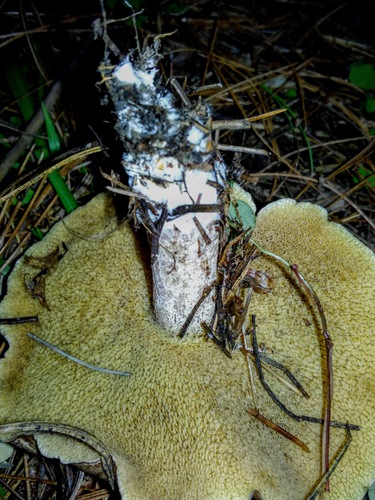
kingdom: Fungi
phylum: Basidiomycota
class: Agaricomycetes
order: Boletales
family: Suillaceae
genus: Suillus
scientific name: Suillus
